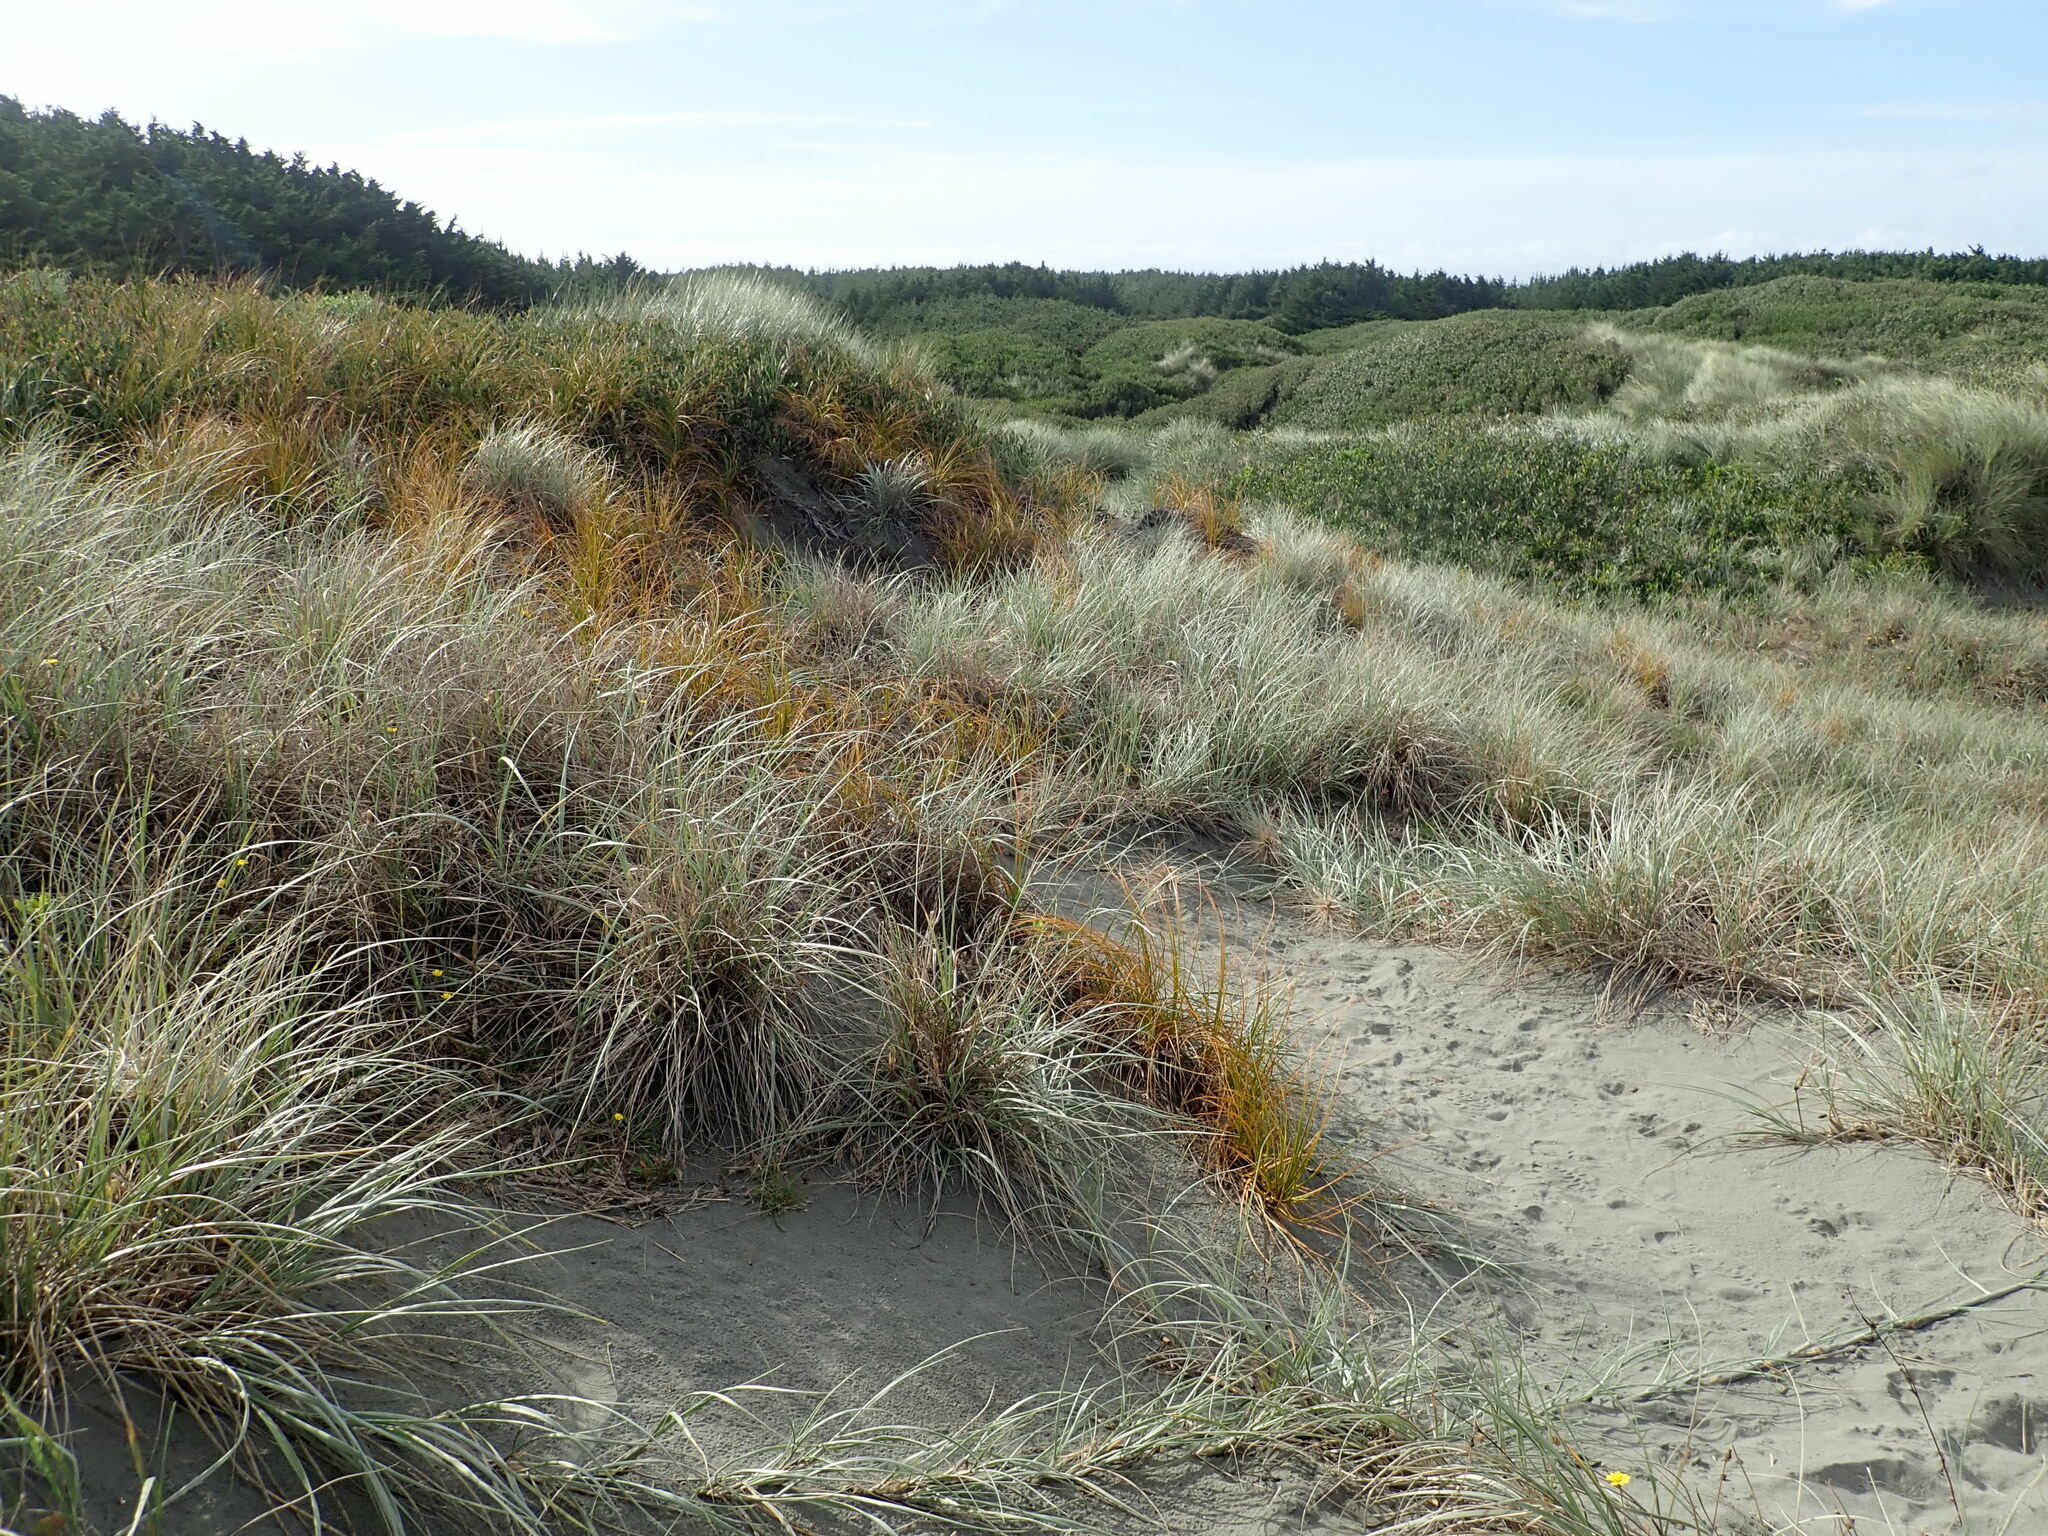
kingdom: Plantae
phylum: Tracheophyta
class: Liliopsida
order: Poales
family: Cyperaceae
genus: Ficinia
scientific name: Ficinia spiralis
